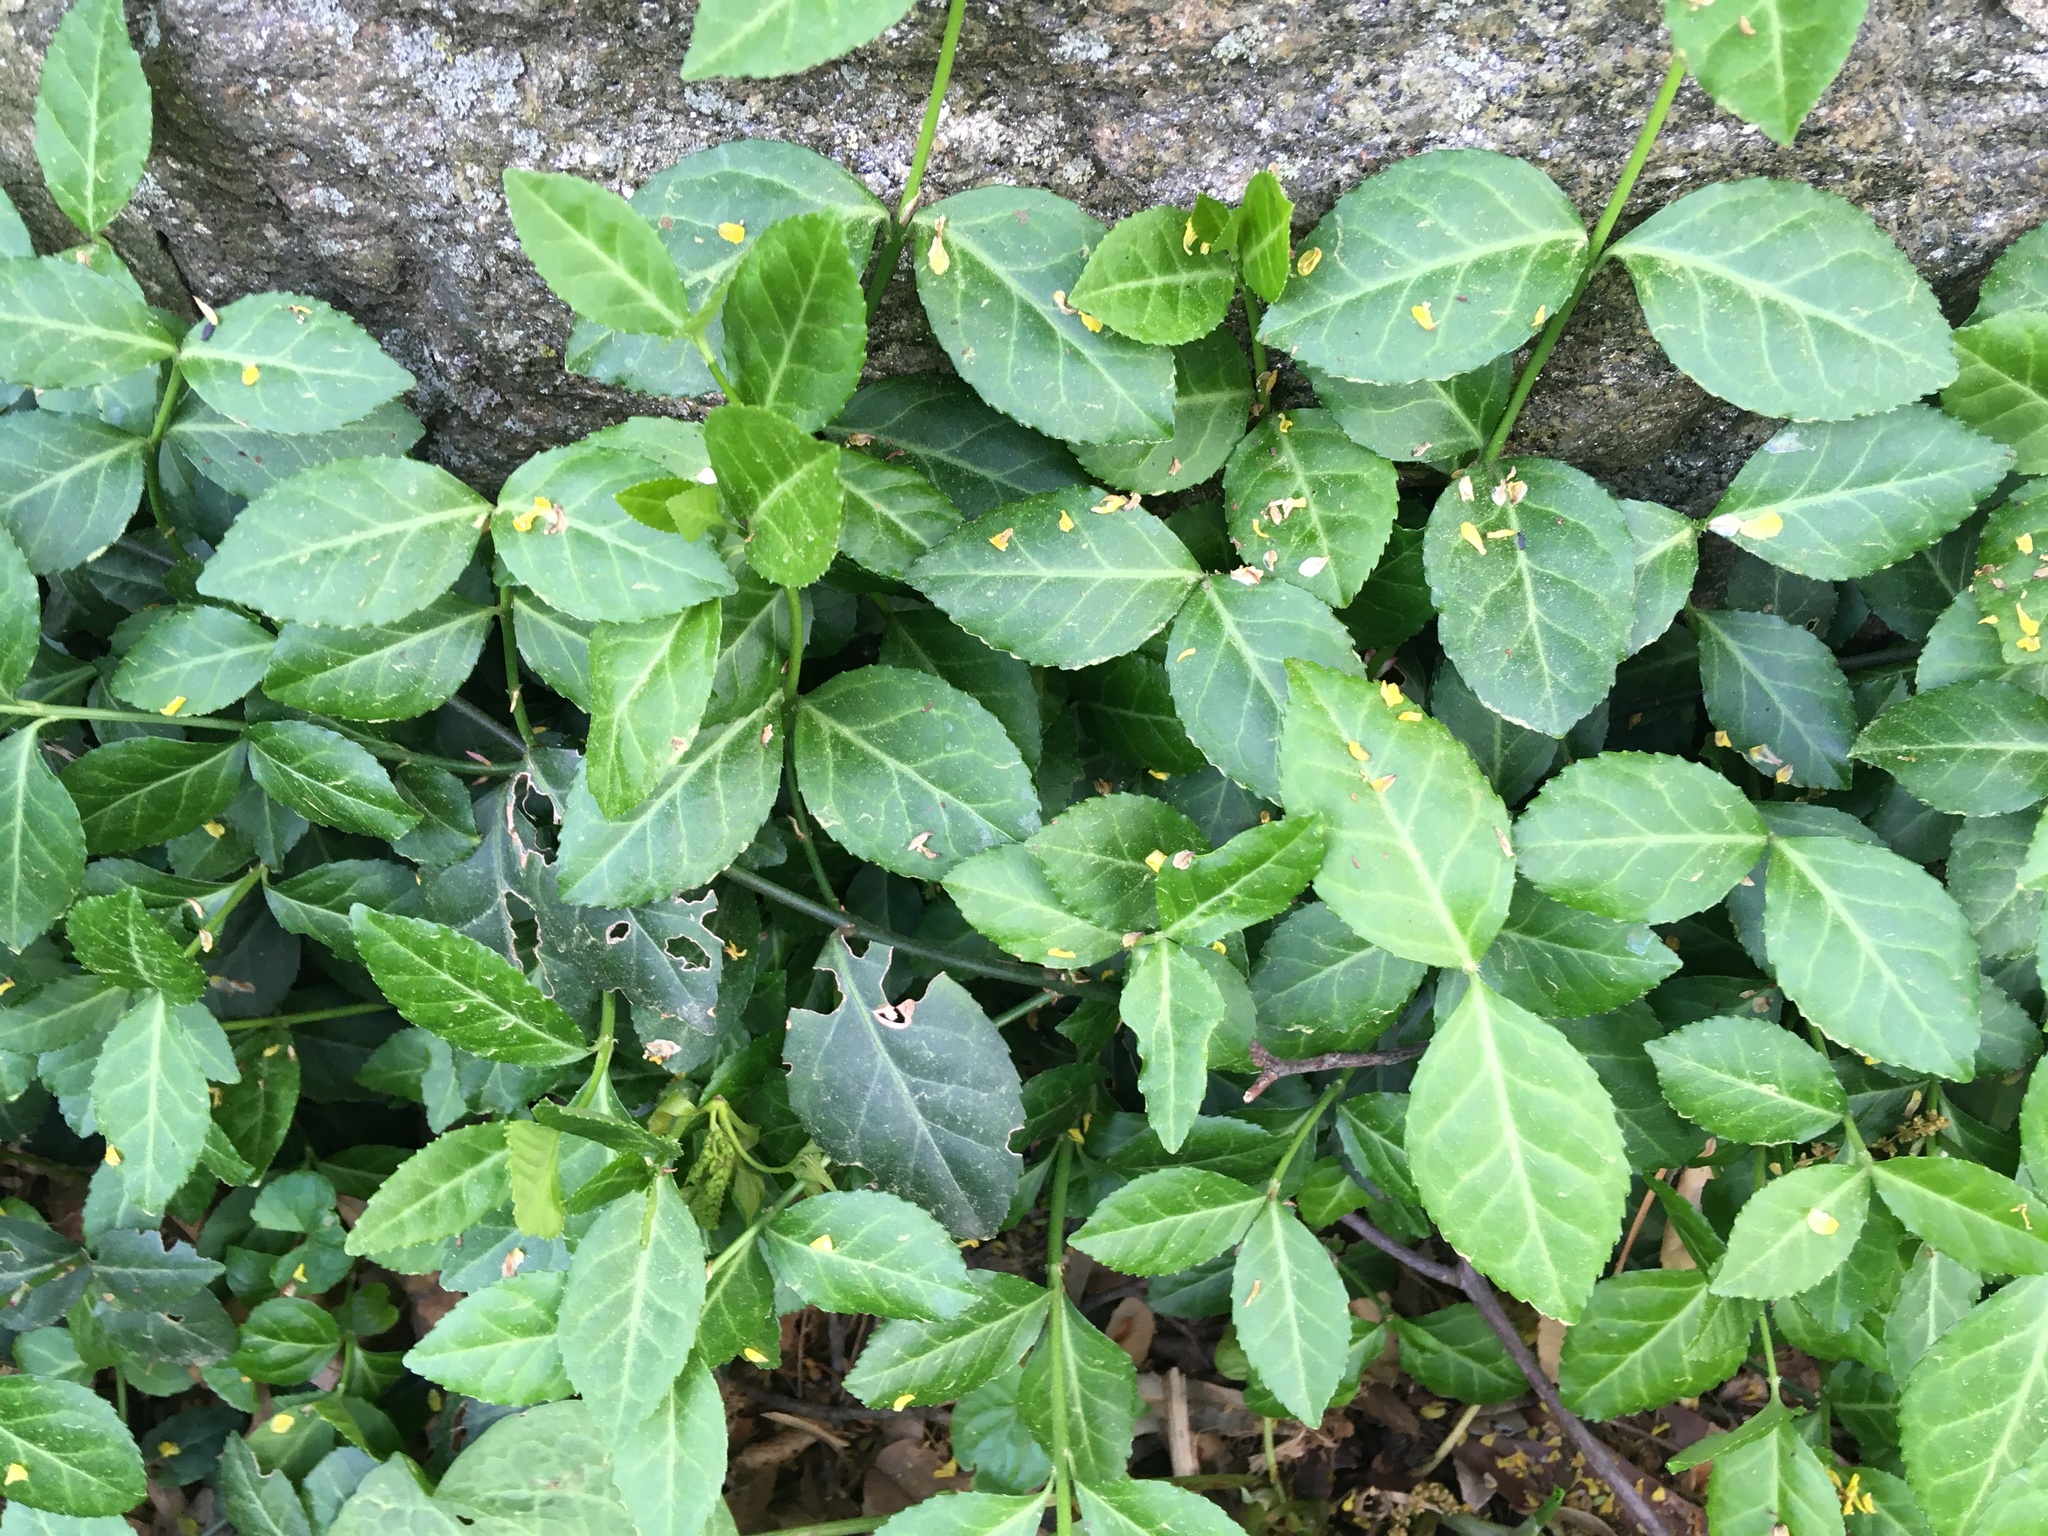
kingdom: Plantae
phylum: Tracheophyta
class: Magnoliopsida
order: Celastrales
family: Celastraceae
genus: Euonymus
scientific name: Euonymus fortunei
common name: Climbing euonymus
